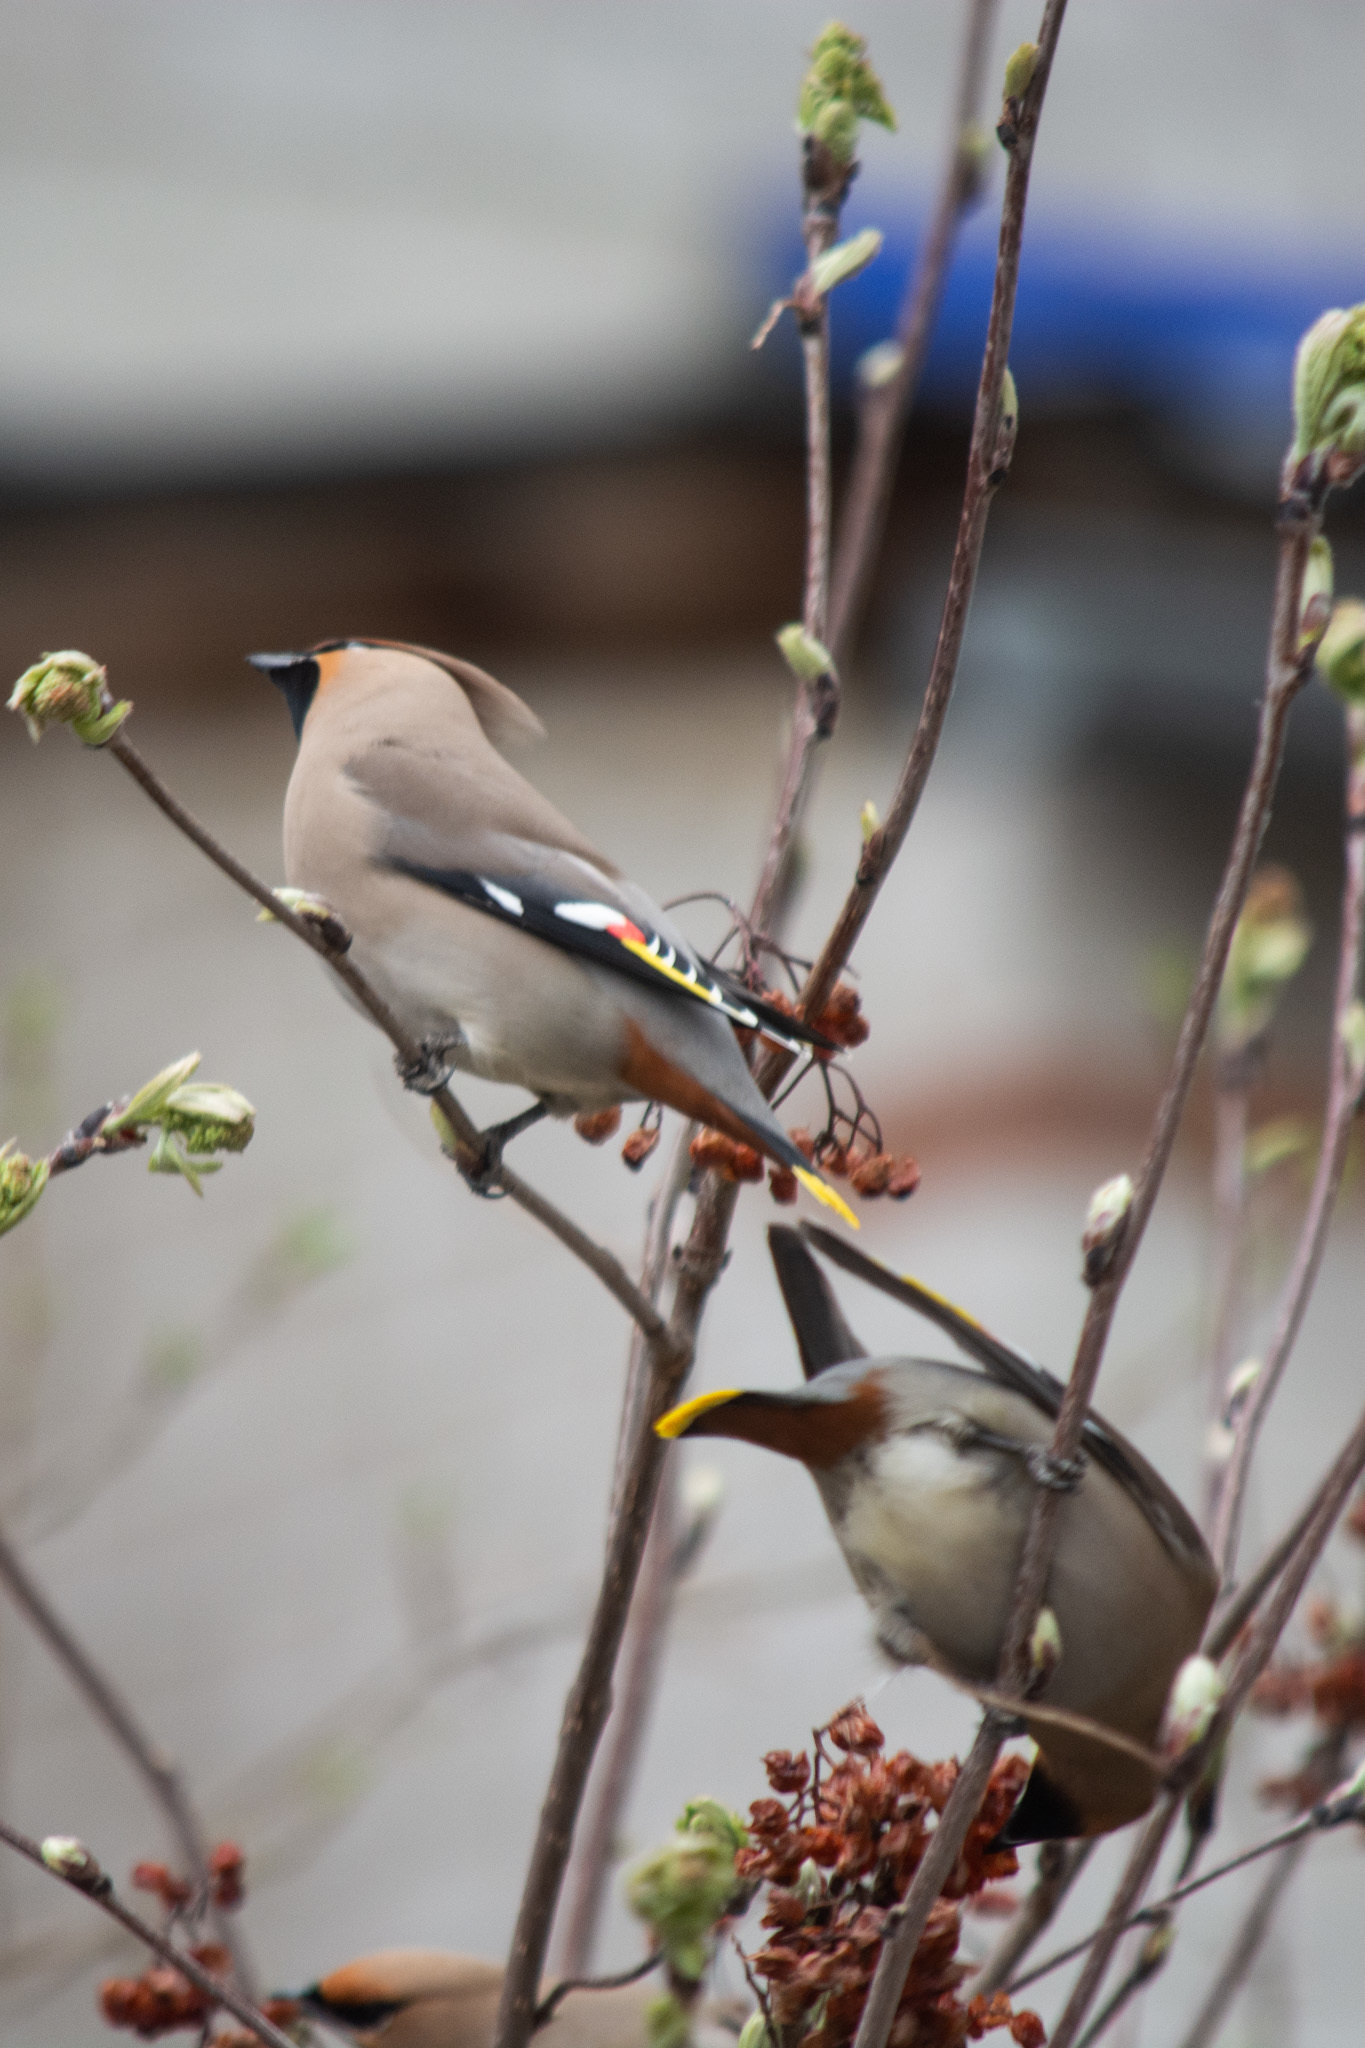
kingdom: Animalia
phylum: Chordata
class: Aves
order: Passeriformes
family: Bombycillidae
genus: Bombycilla
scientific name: Bombycilla garrulus
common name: Bohemian waxwing
